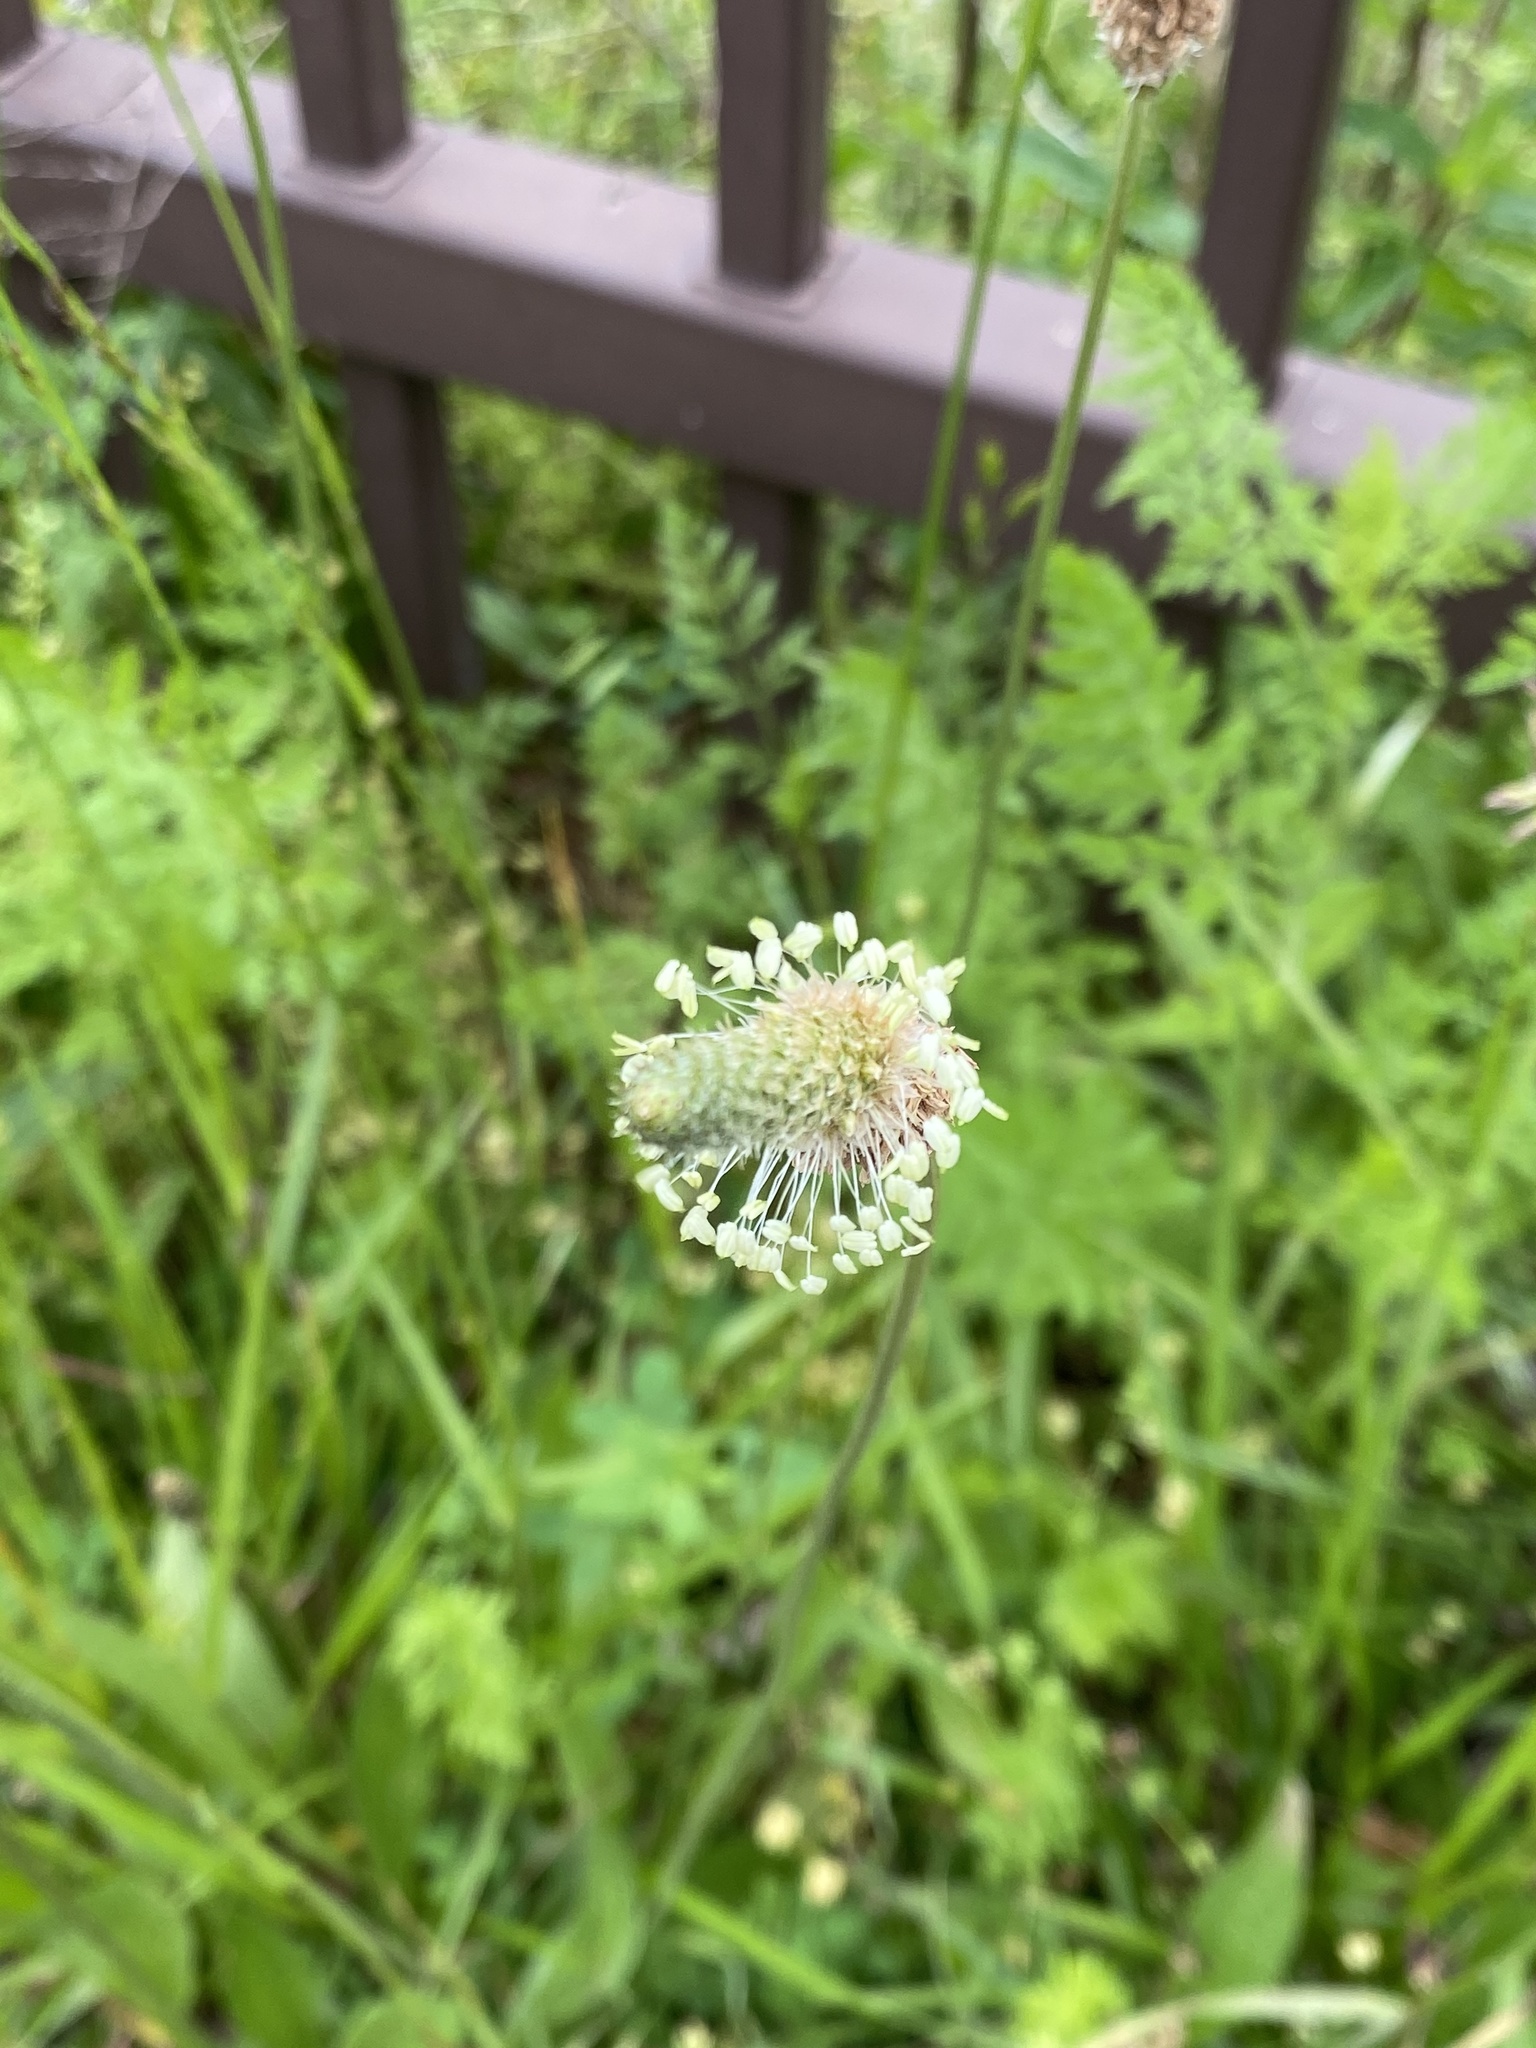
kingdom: Plantae
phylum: Tracheophyta
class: Magnoliopsida
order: Lamiales
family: Plantaginaceae
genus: Plantago
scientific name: Plantago lanceolata
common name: Ribwort plantain
